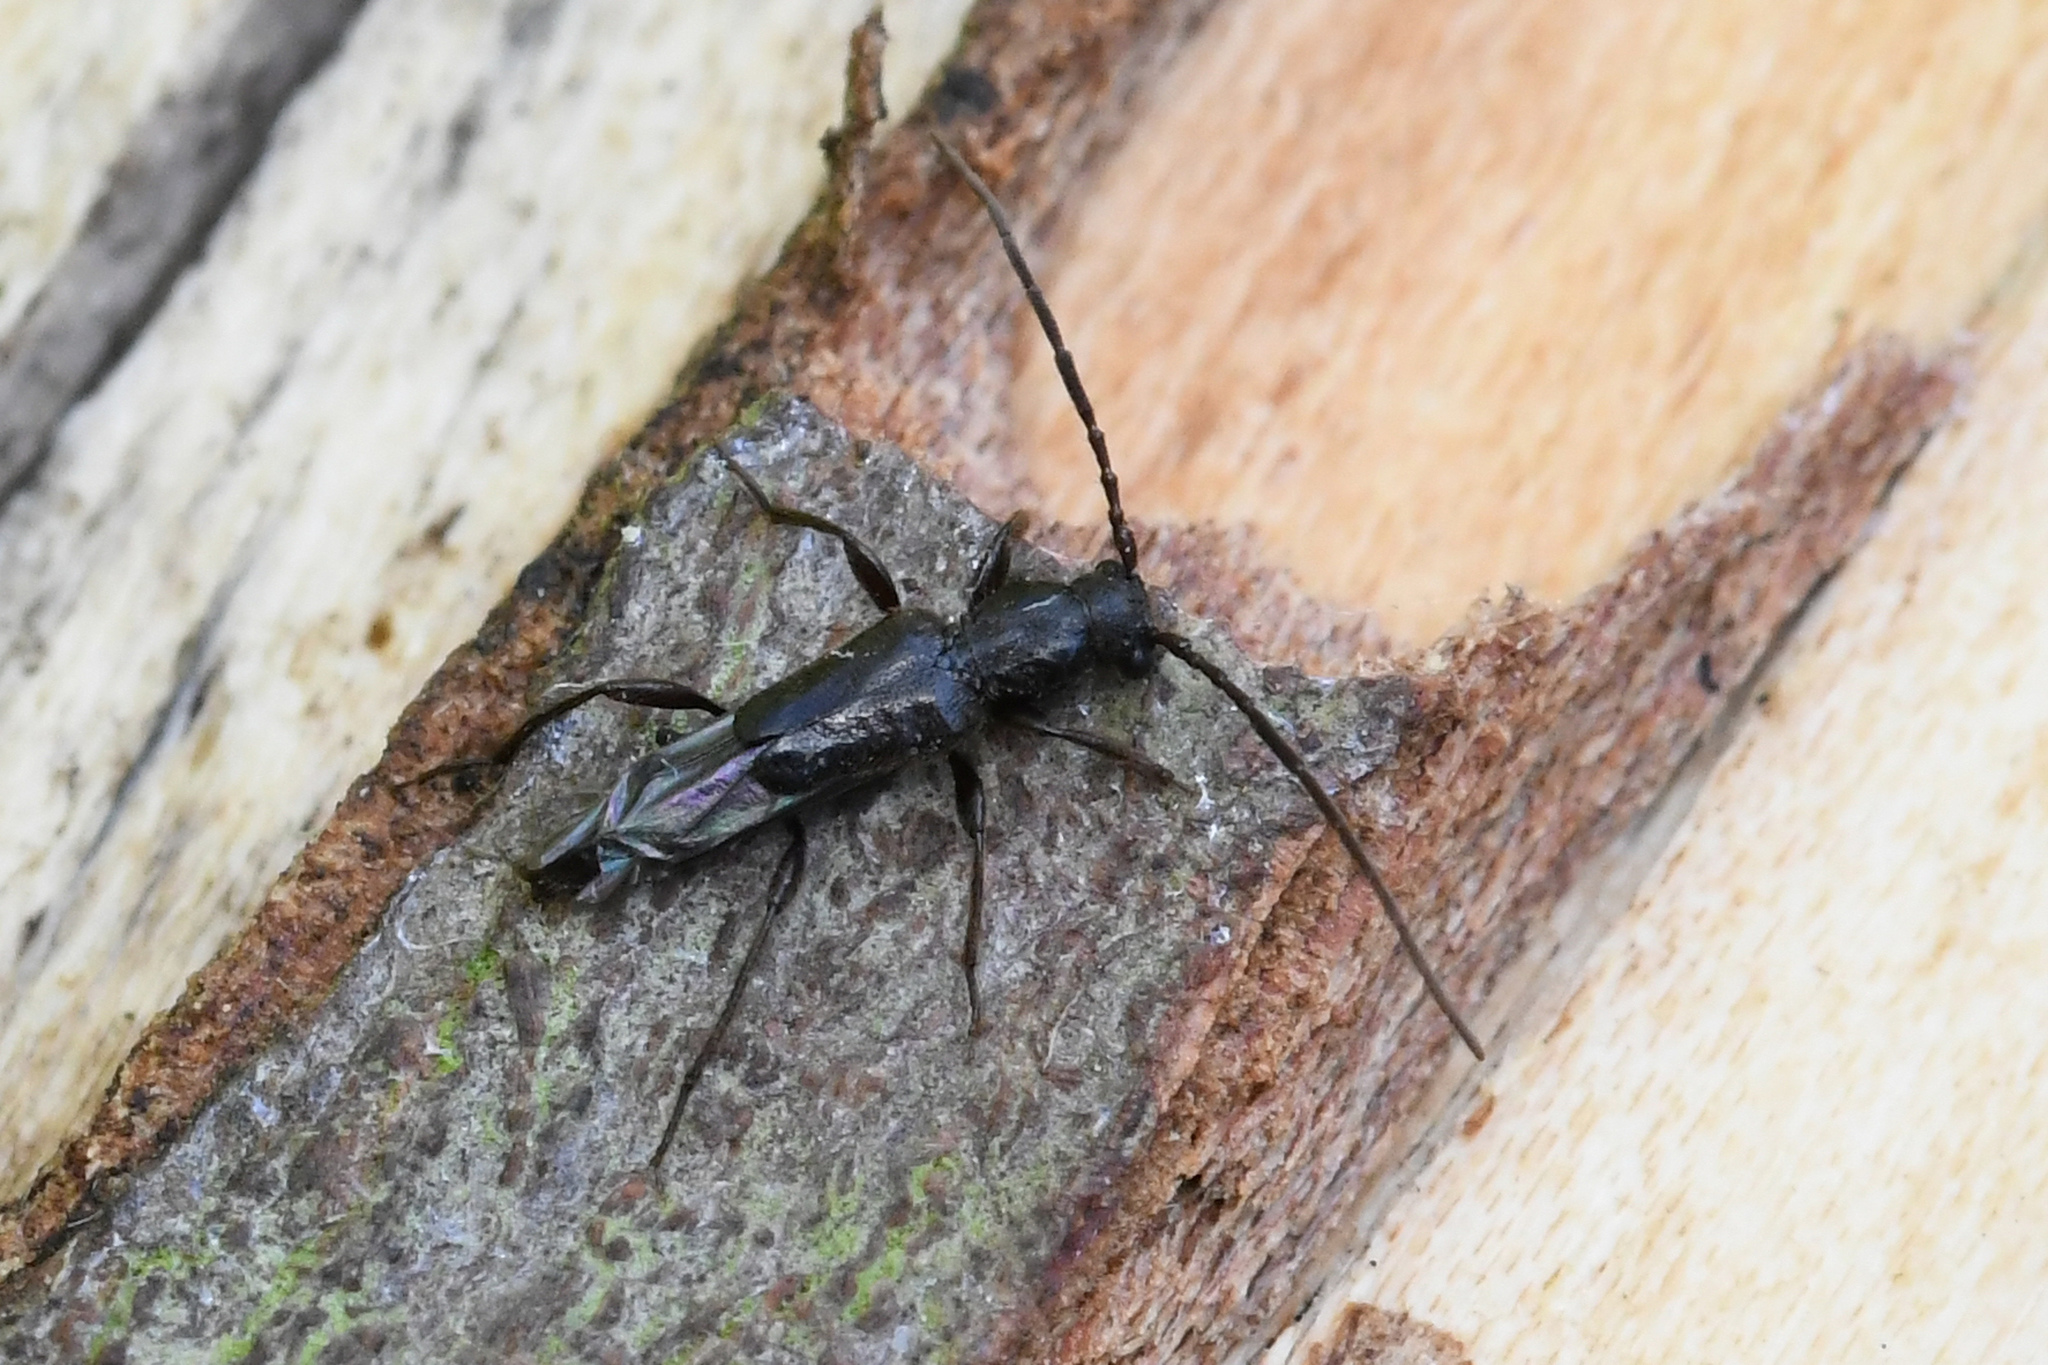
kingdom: Animalia
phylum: Arthropoda
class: Insecta
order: Coleoptera
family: Cerambycidae
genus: Nathrius
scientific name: Nathrius brevipennis
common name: Long-horned beetle
